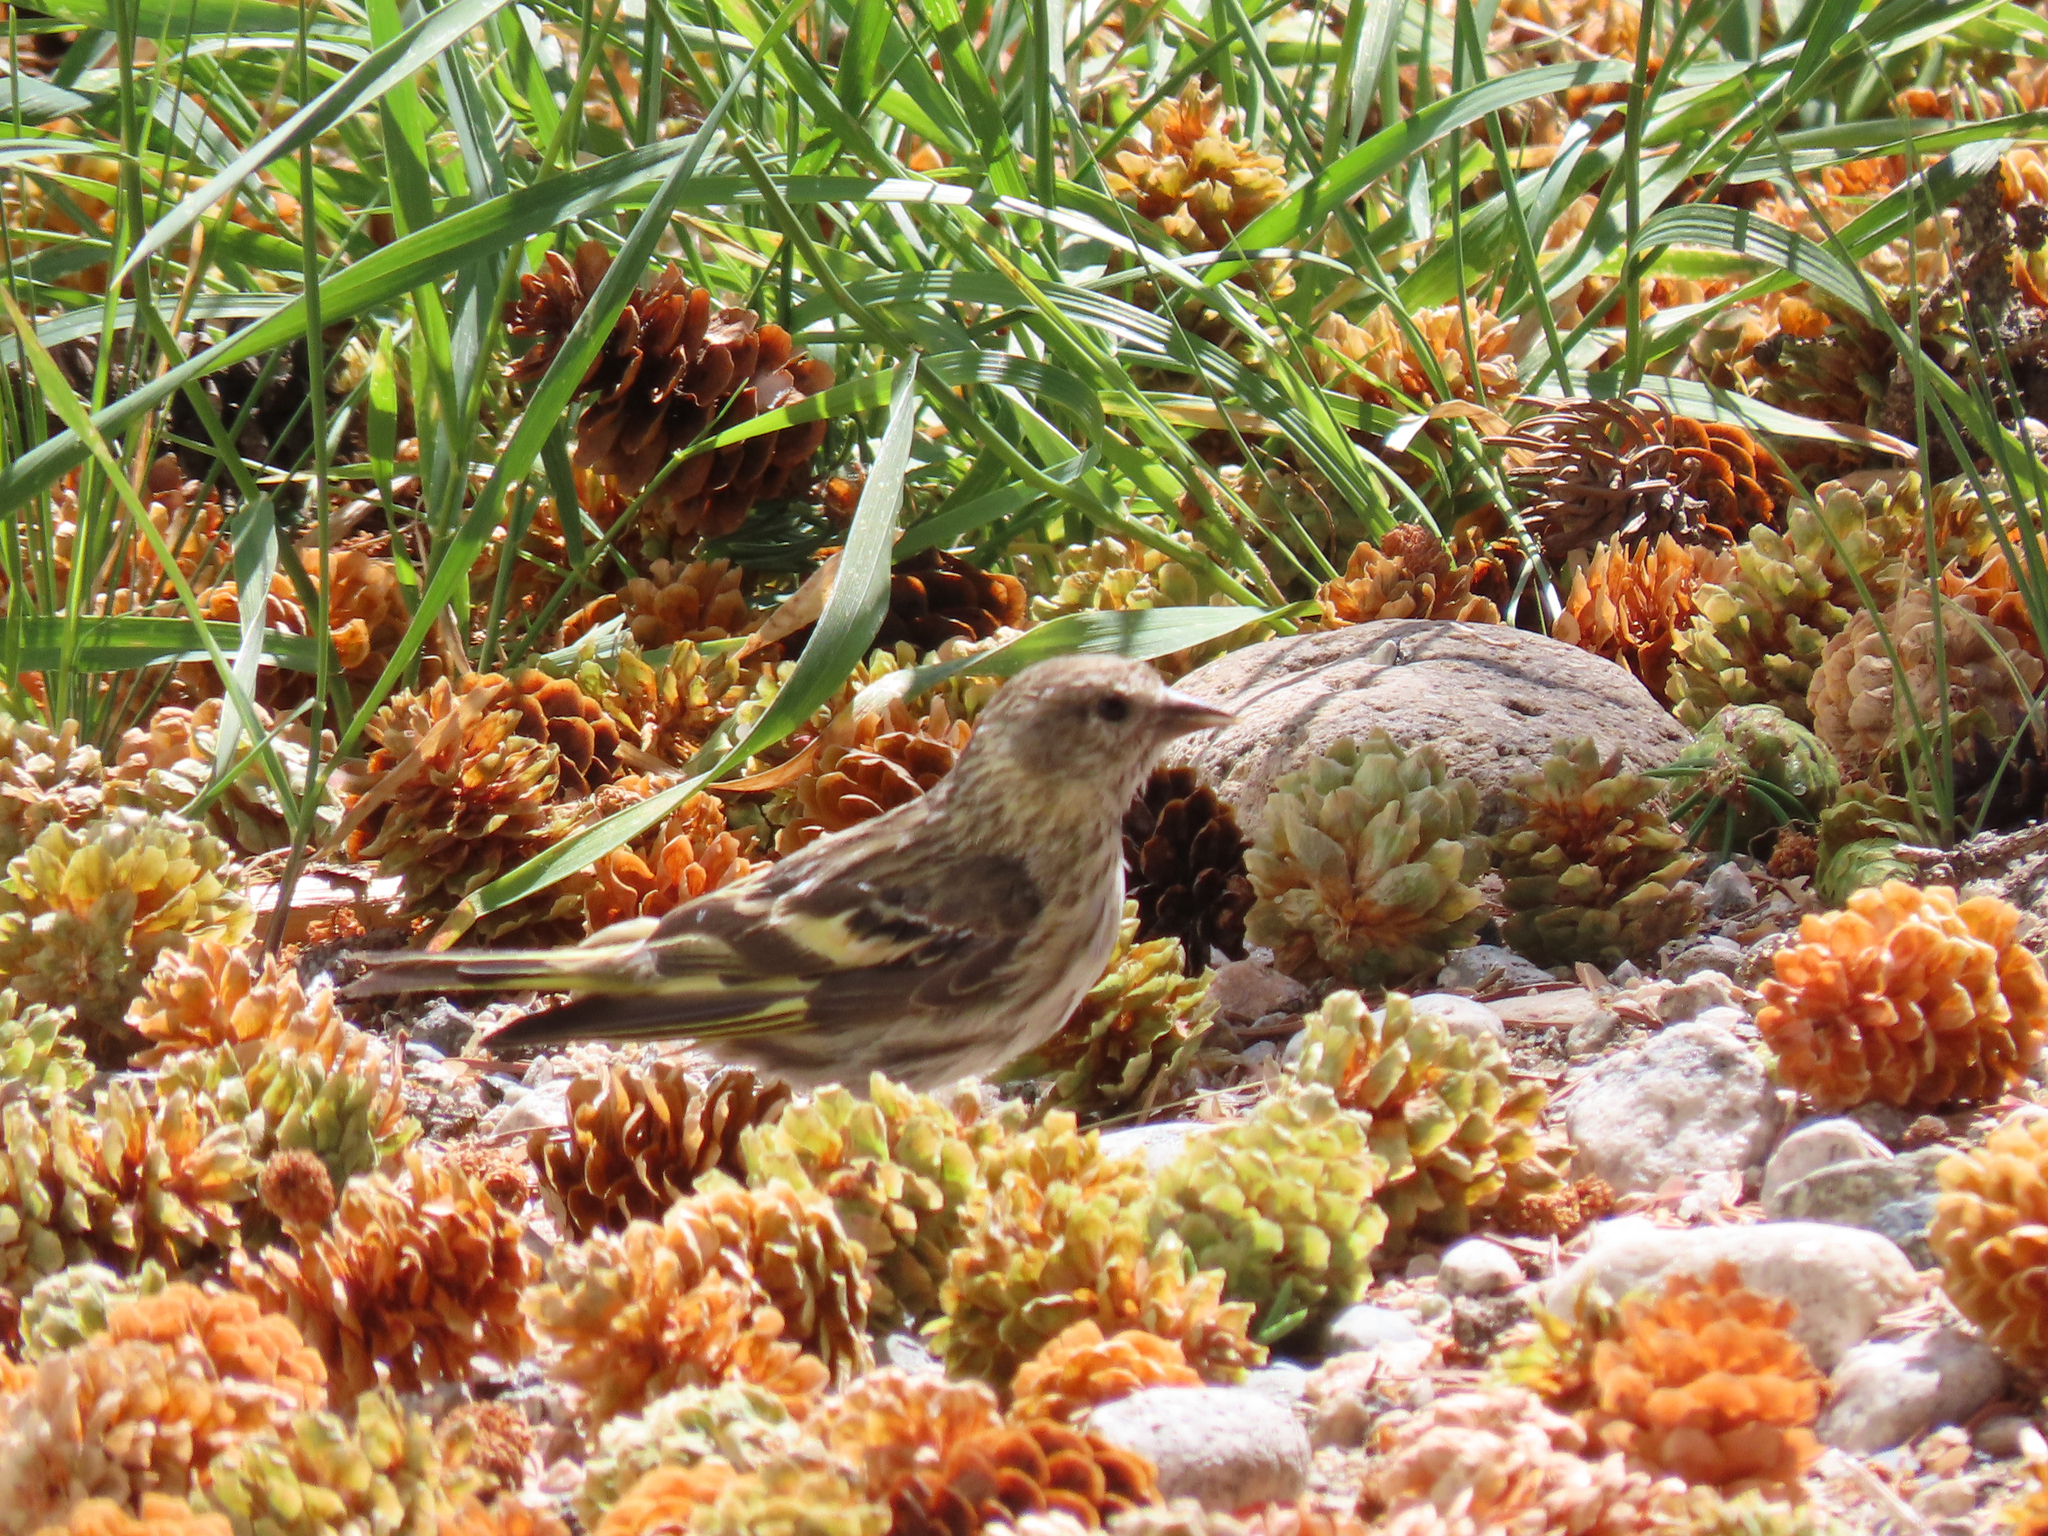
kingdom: Animalia
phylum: Chordata
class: Aves
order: Passeriformes
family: Fringillidae
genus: Spinus
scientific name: Spinus pinus
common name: Pine siskin
